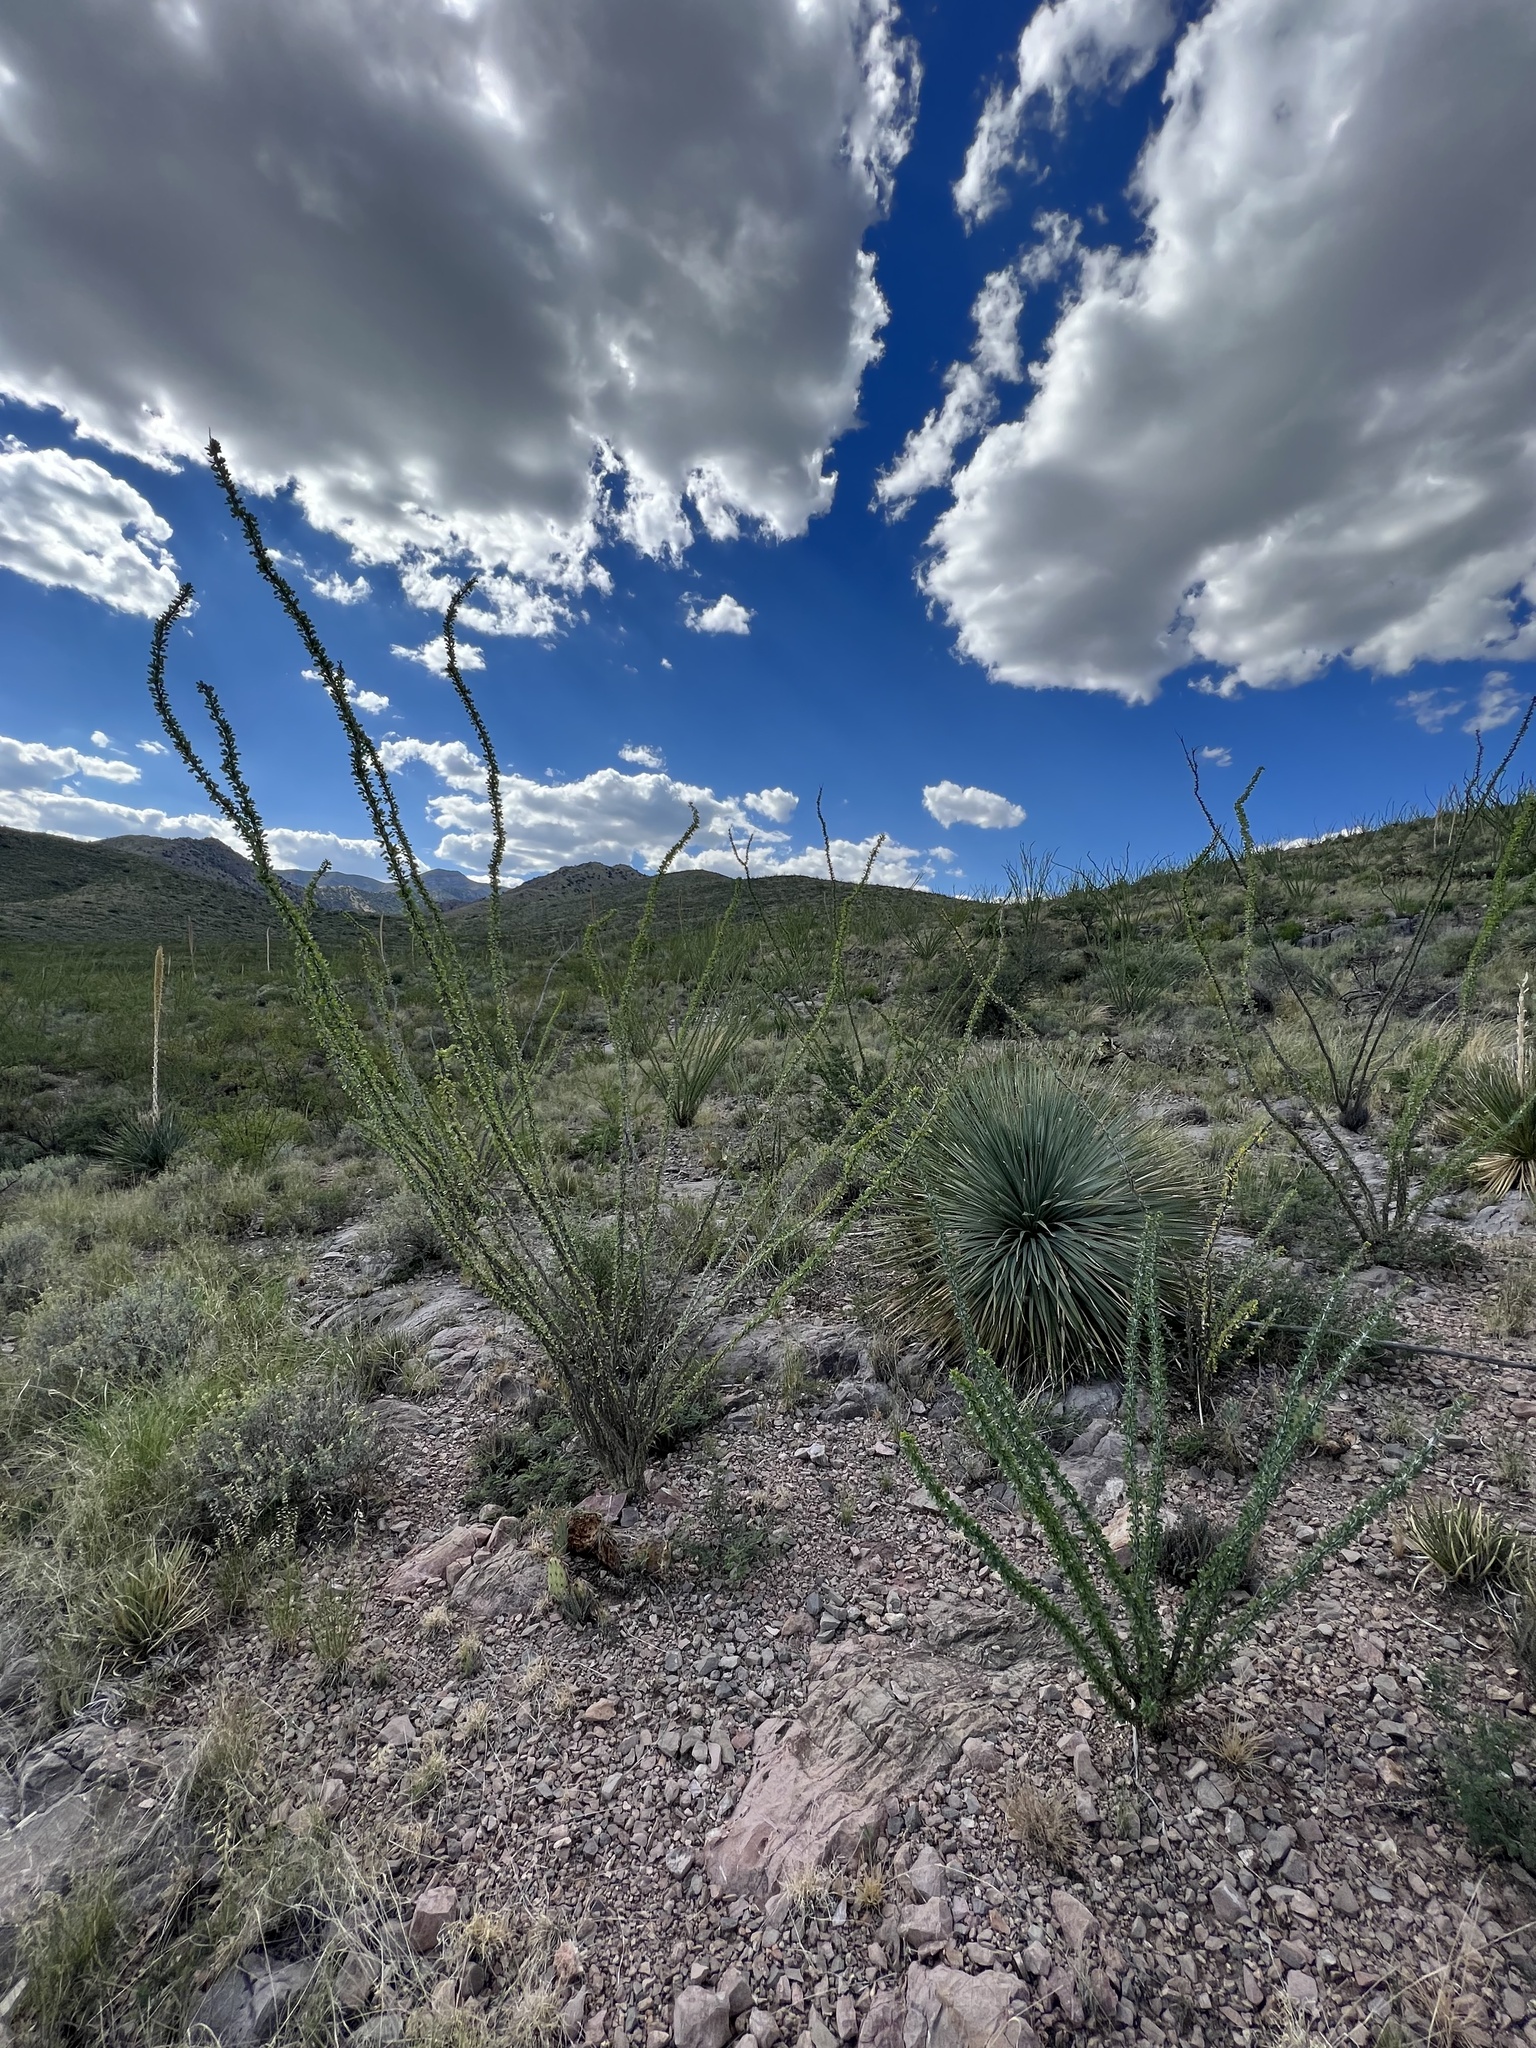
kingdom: Plantae
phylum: Tracheophyta
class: Magnoliopsida
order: Ericales
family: Fouquieriaceae
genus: Fouquieria
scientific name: Fouquieria splendens
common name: Vine-cactus
